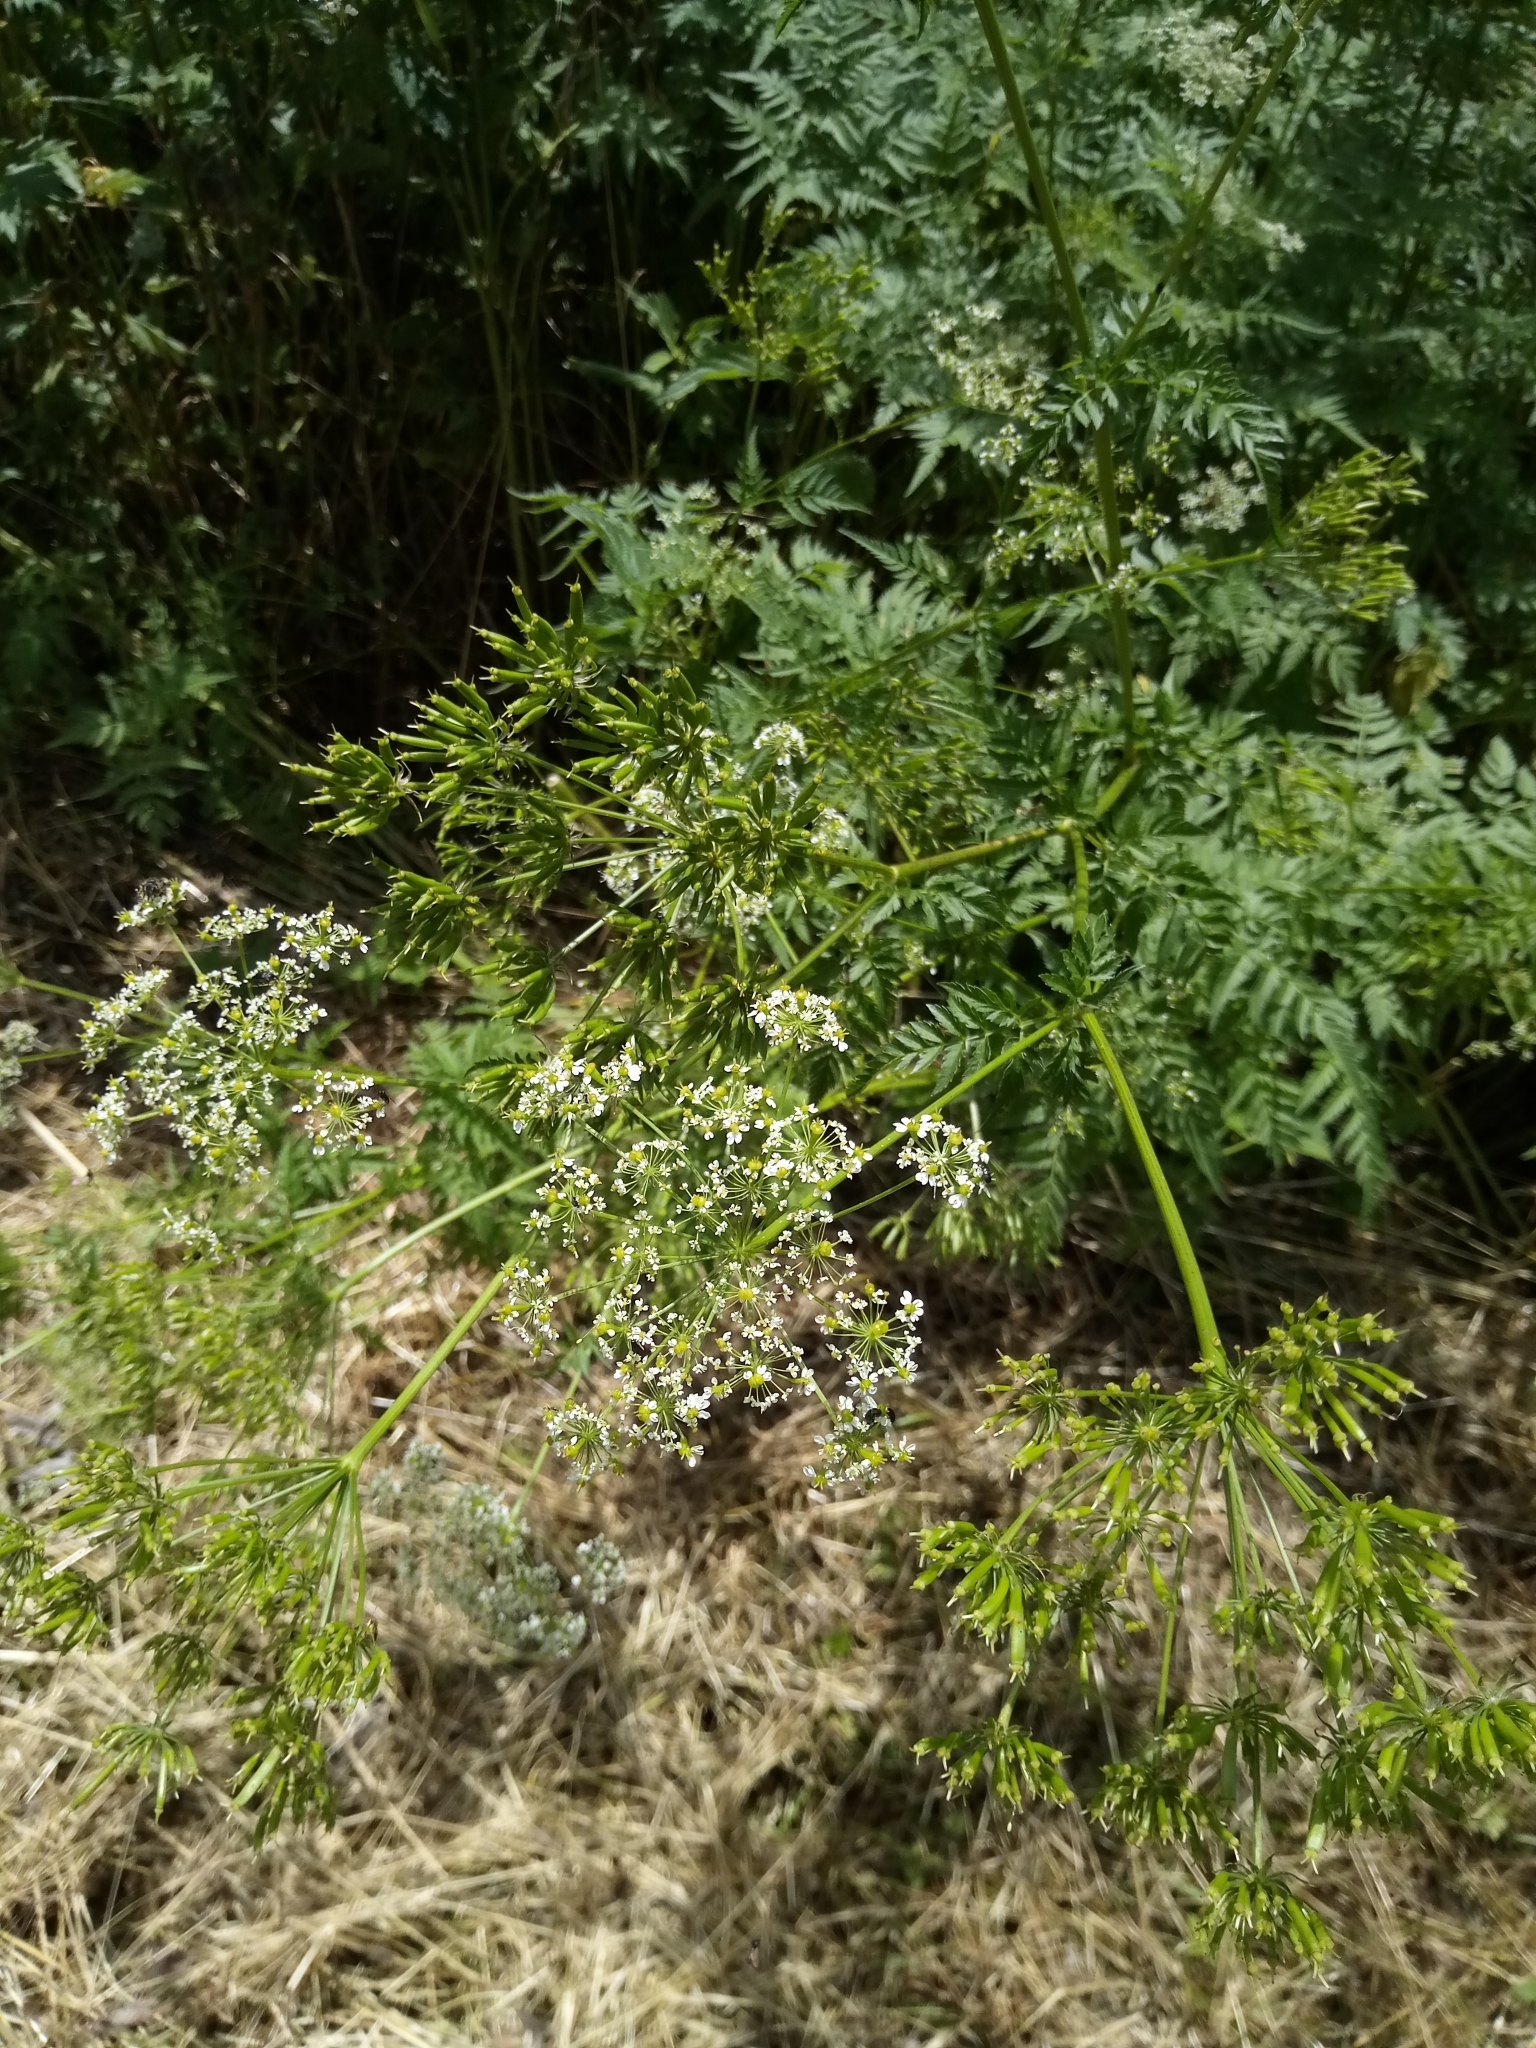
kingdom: Plantae
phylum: Tracheophyta
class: Magnoliopsida
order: Apiales
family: Apiaceae
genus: Anthriscus
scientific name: Anthriscus sylvestris
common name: Cow parsley
